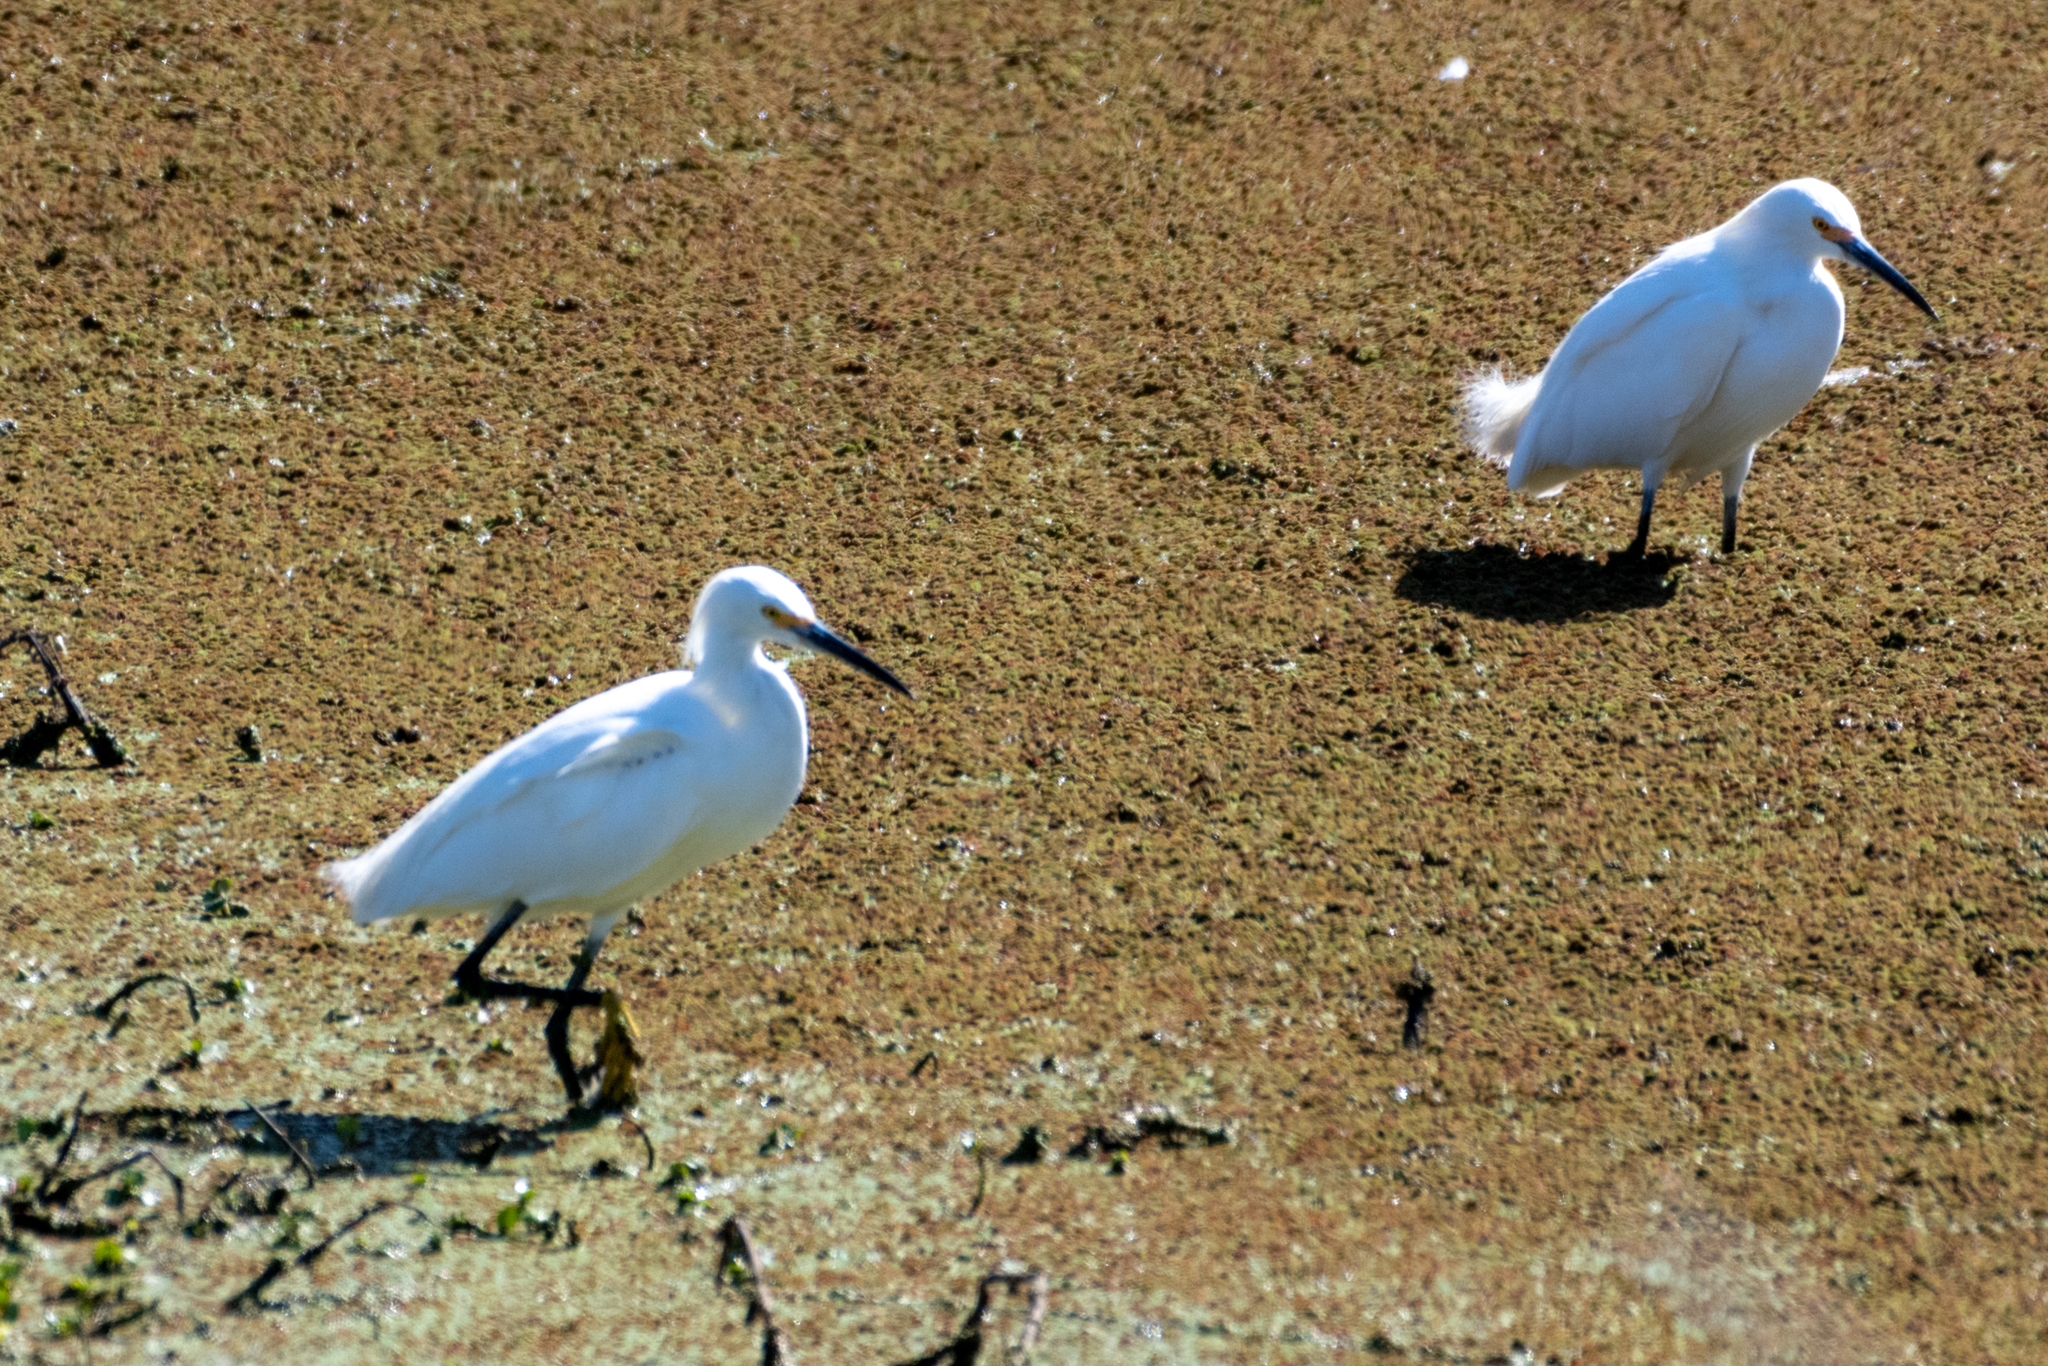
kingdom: Animalia
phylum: Chordata
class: Aves
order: Pelecaniformes
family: Ardeidae
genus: Egretta
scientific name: Egretta thula
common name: Snowy egret
